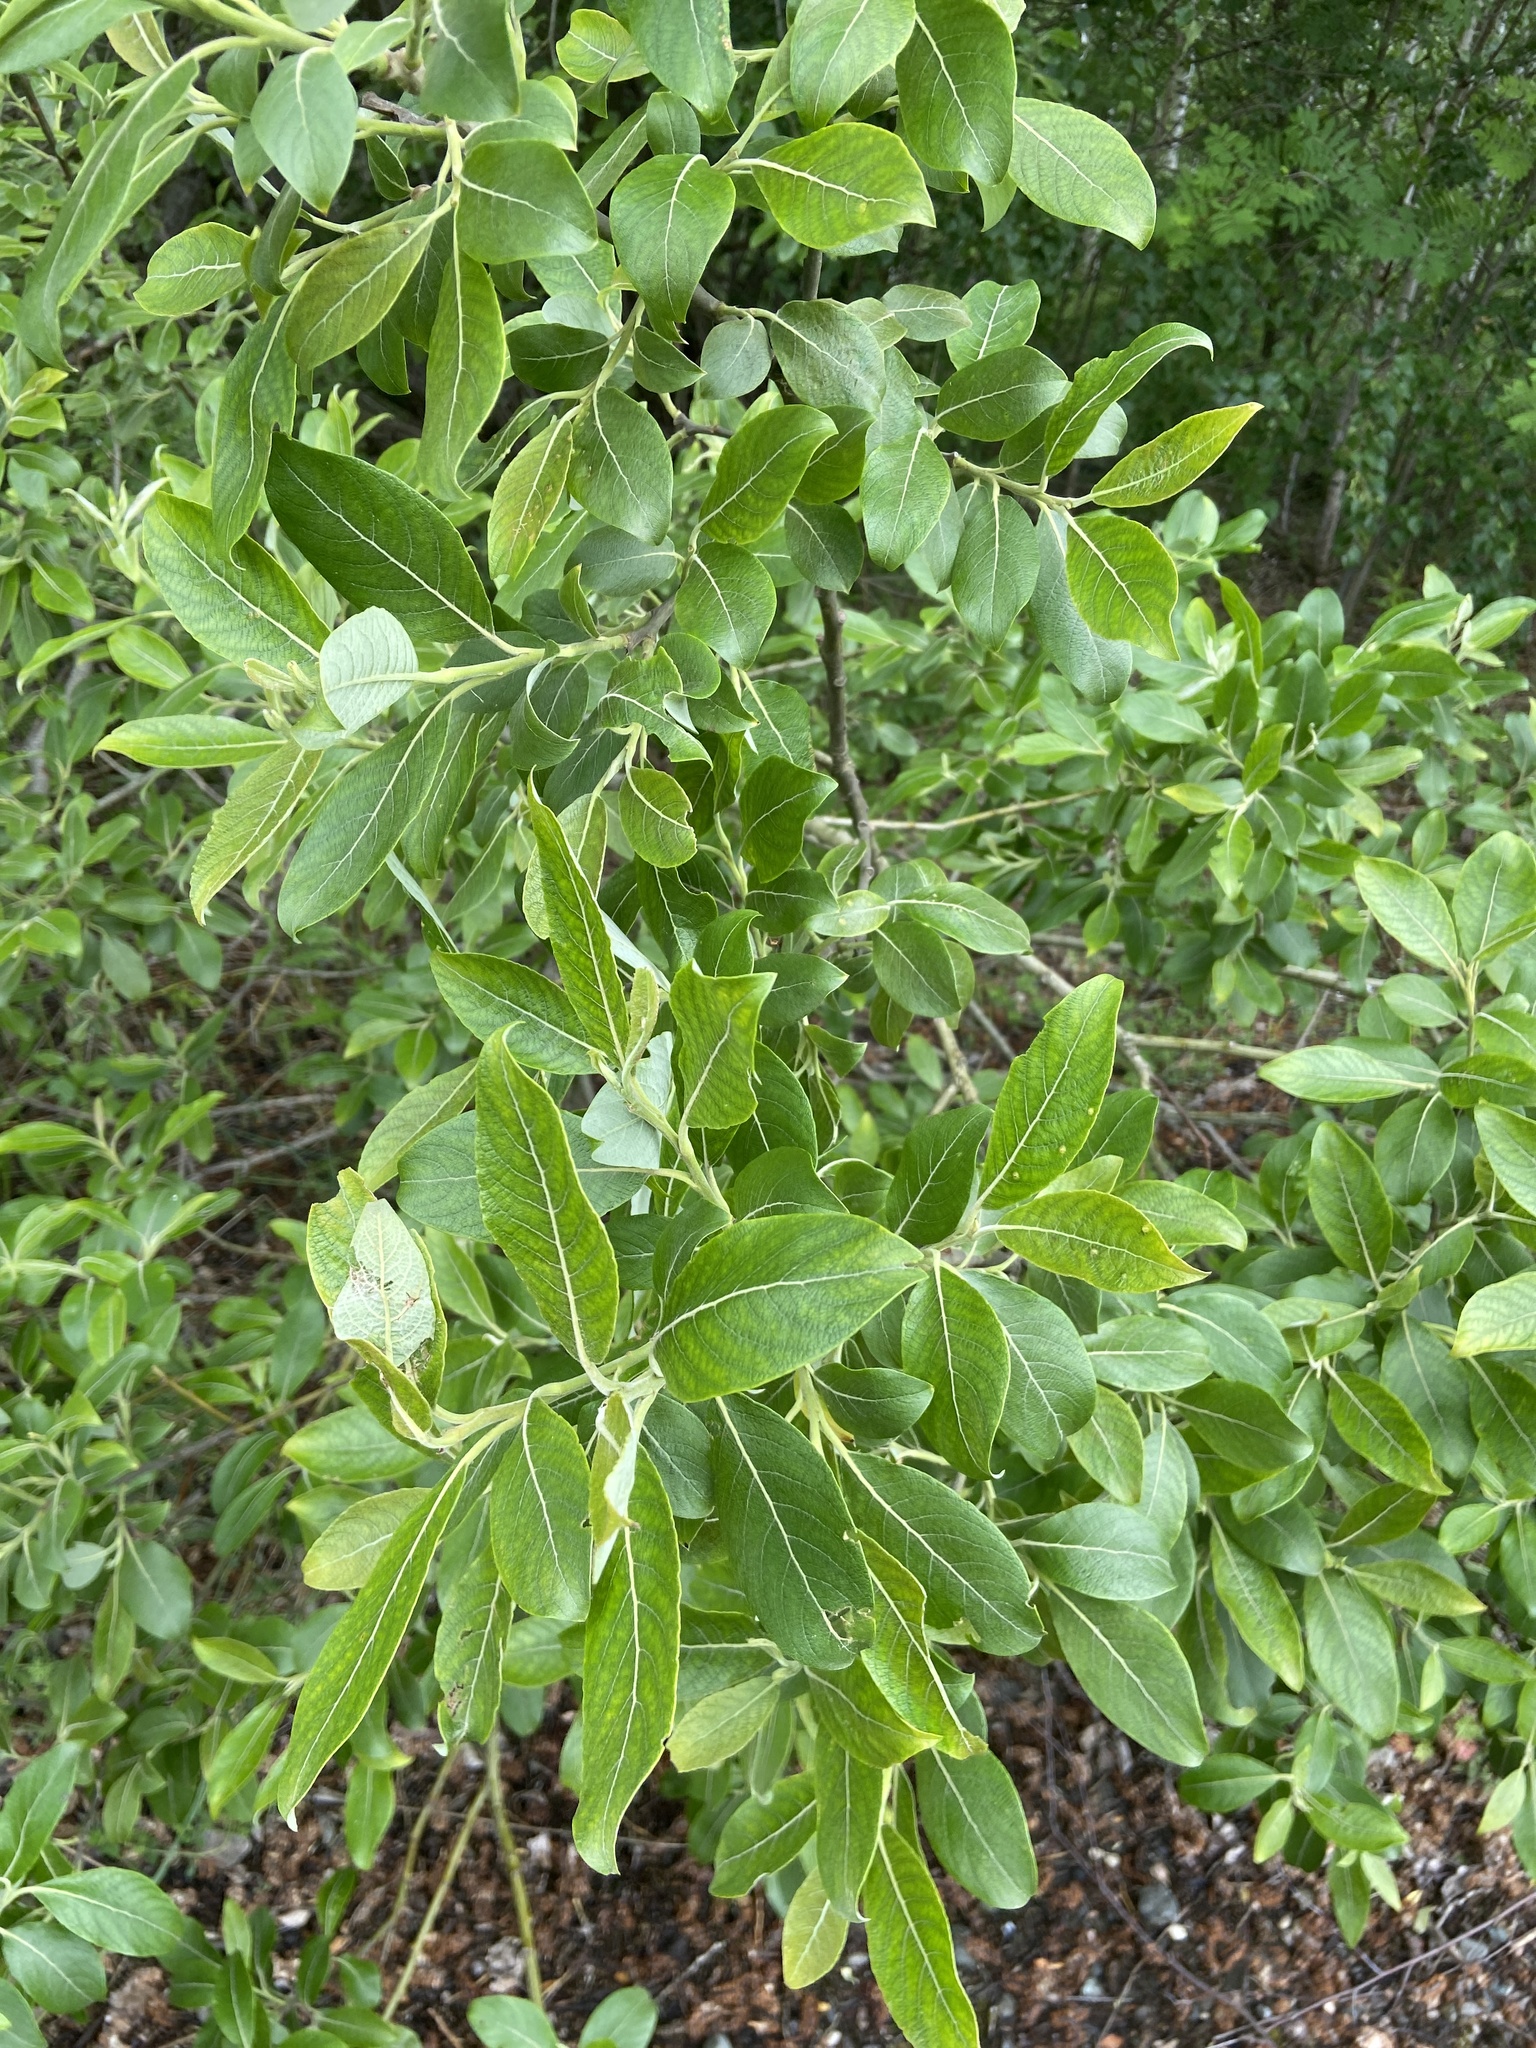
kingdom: Plantae
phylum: Tracheophyta
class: Magnoliopsida
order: Malpighiales
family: Salicaceae
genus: Salix
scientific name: Salix caprea
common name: Goat willow
